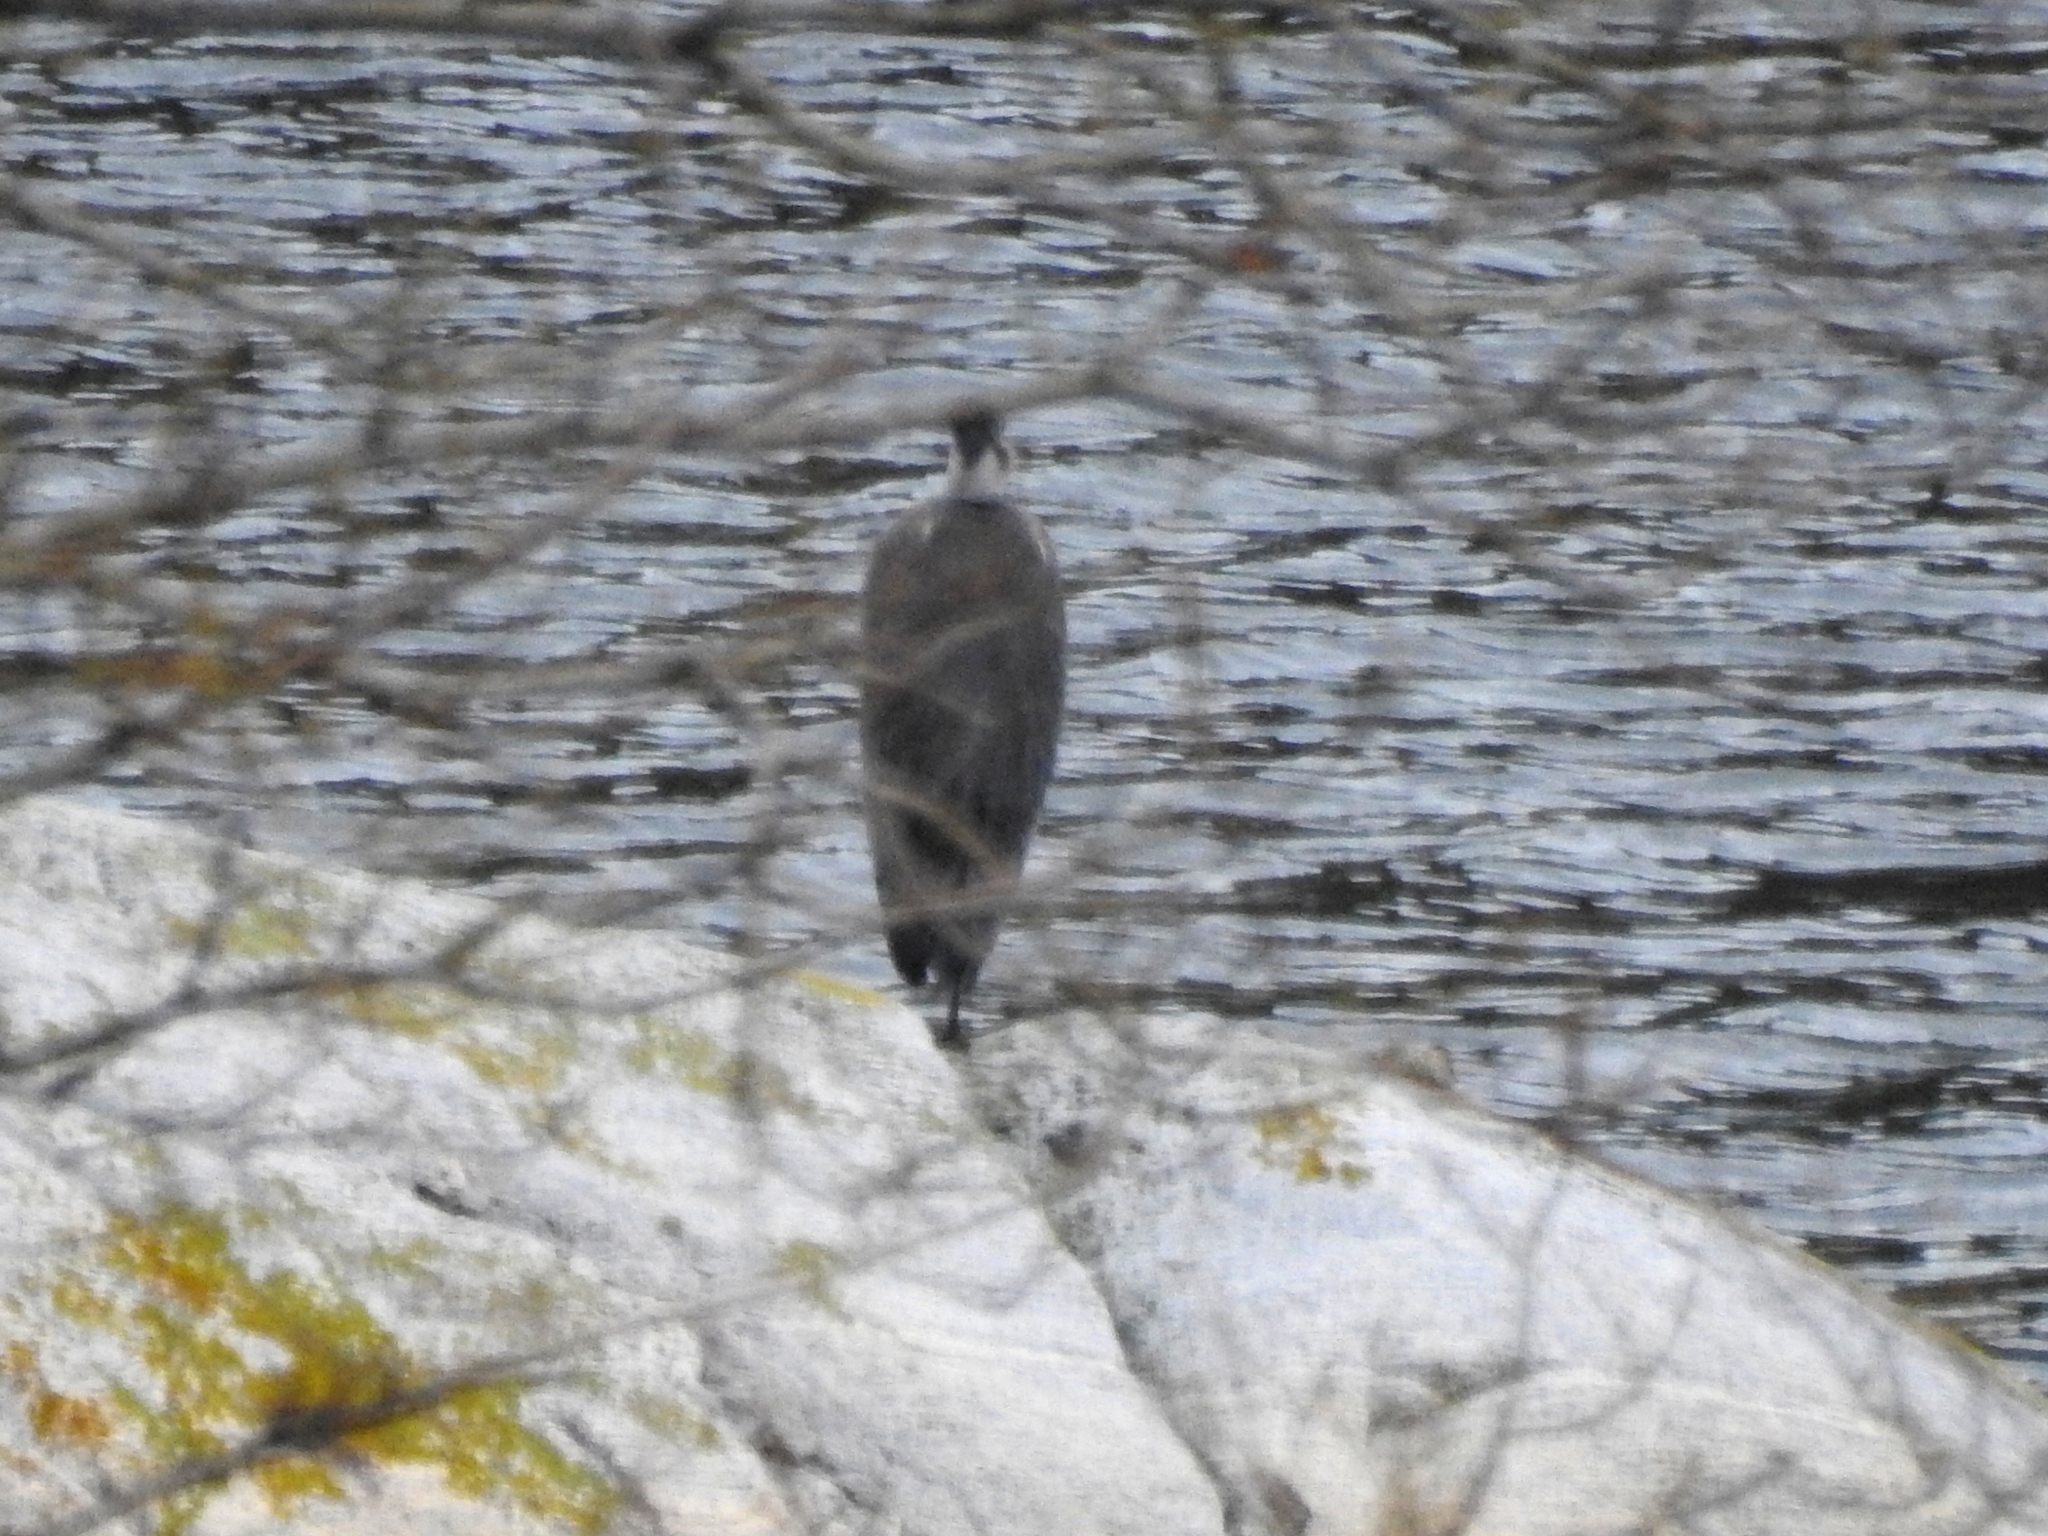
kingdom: Animalia
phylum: Chordata
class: Aves
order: Pelecaniformes
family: Ardeidae
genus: Ardea
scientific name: Ardea cinerea
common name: Grey heron
